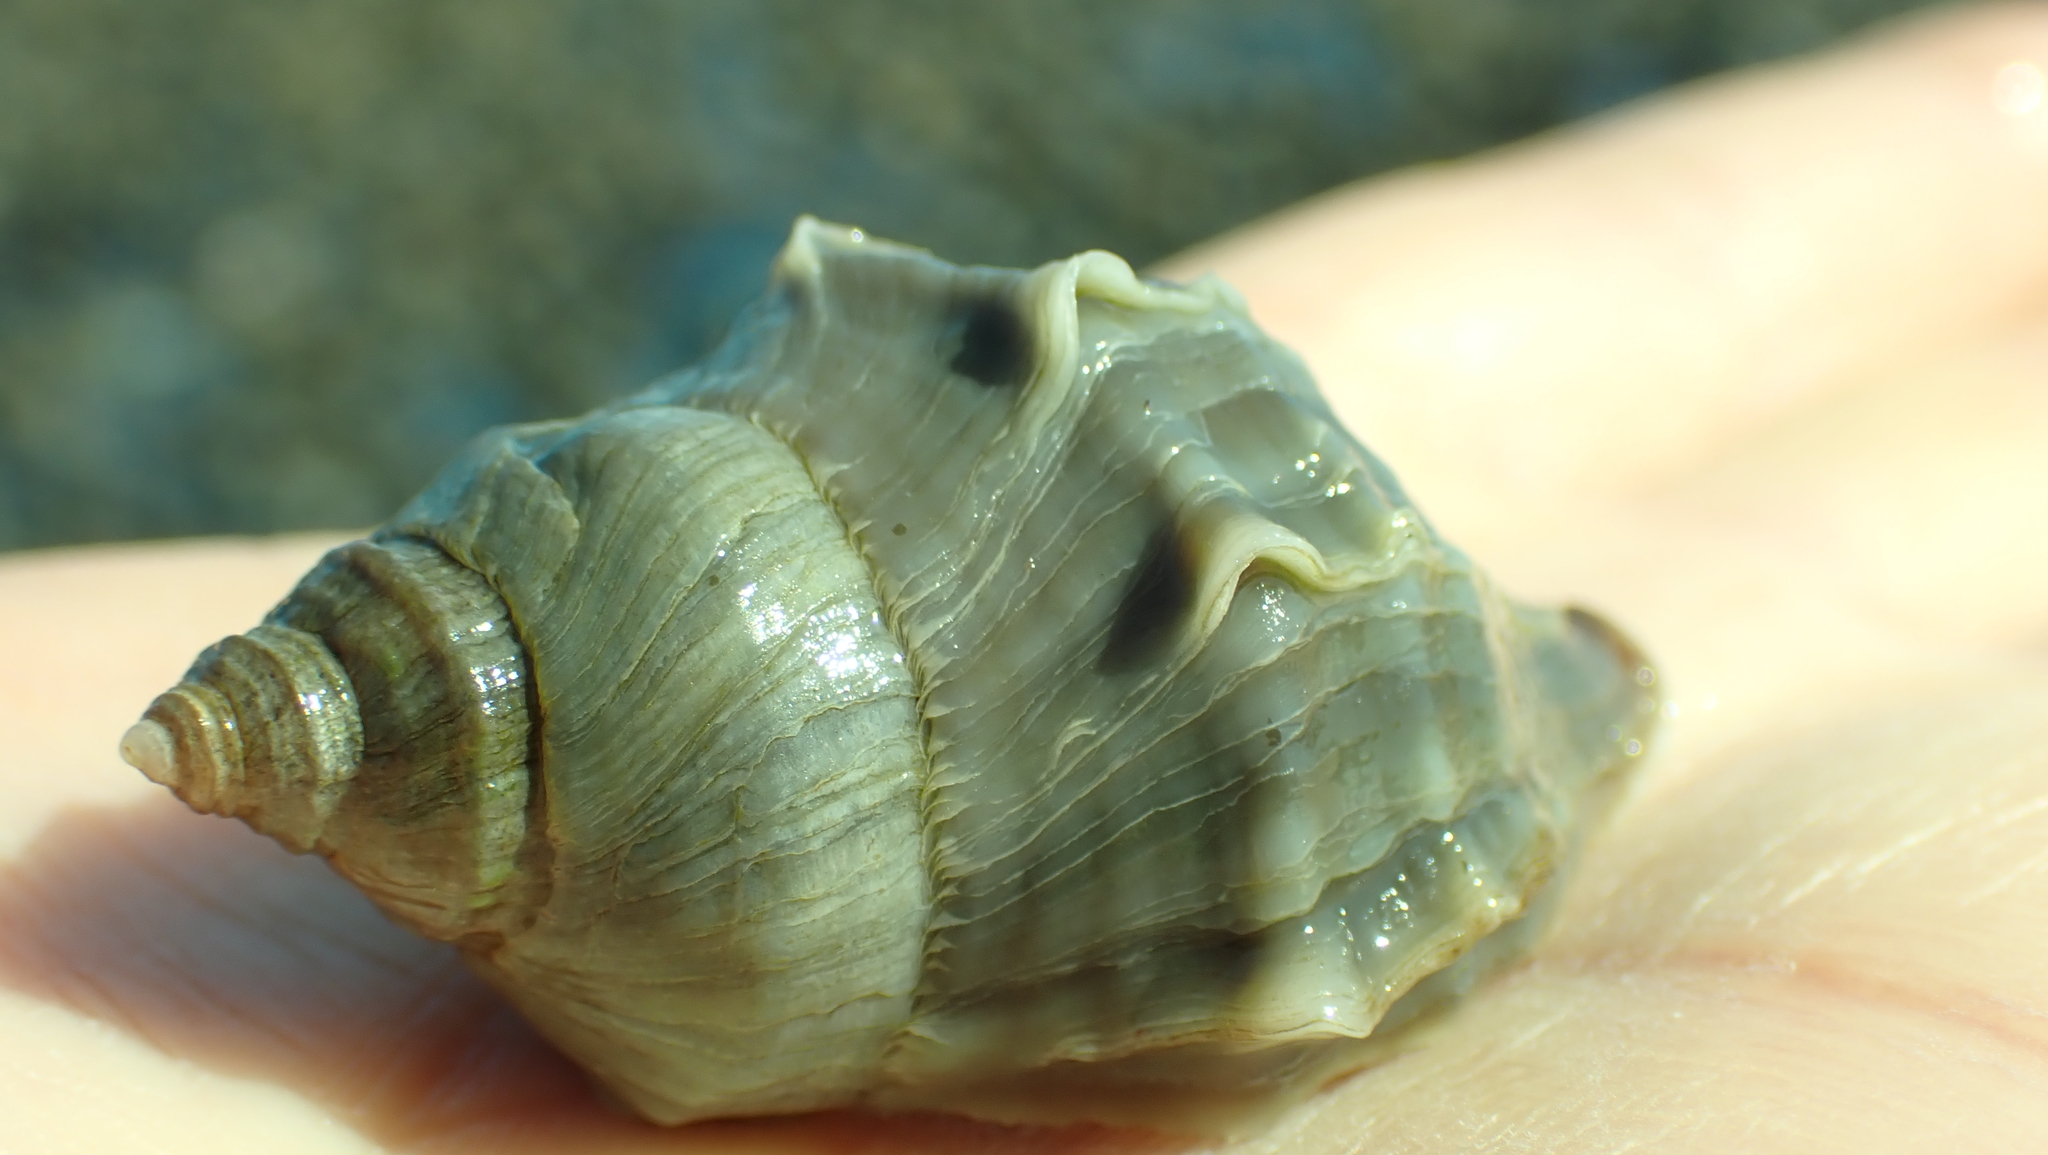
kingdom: Animalia
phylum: Mollusca
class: Gastropoda
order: Neogastropoda
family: Muricidae
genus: Nucella
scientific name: Nucella lamellosa
